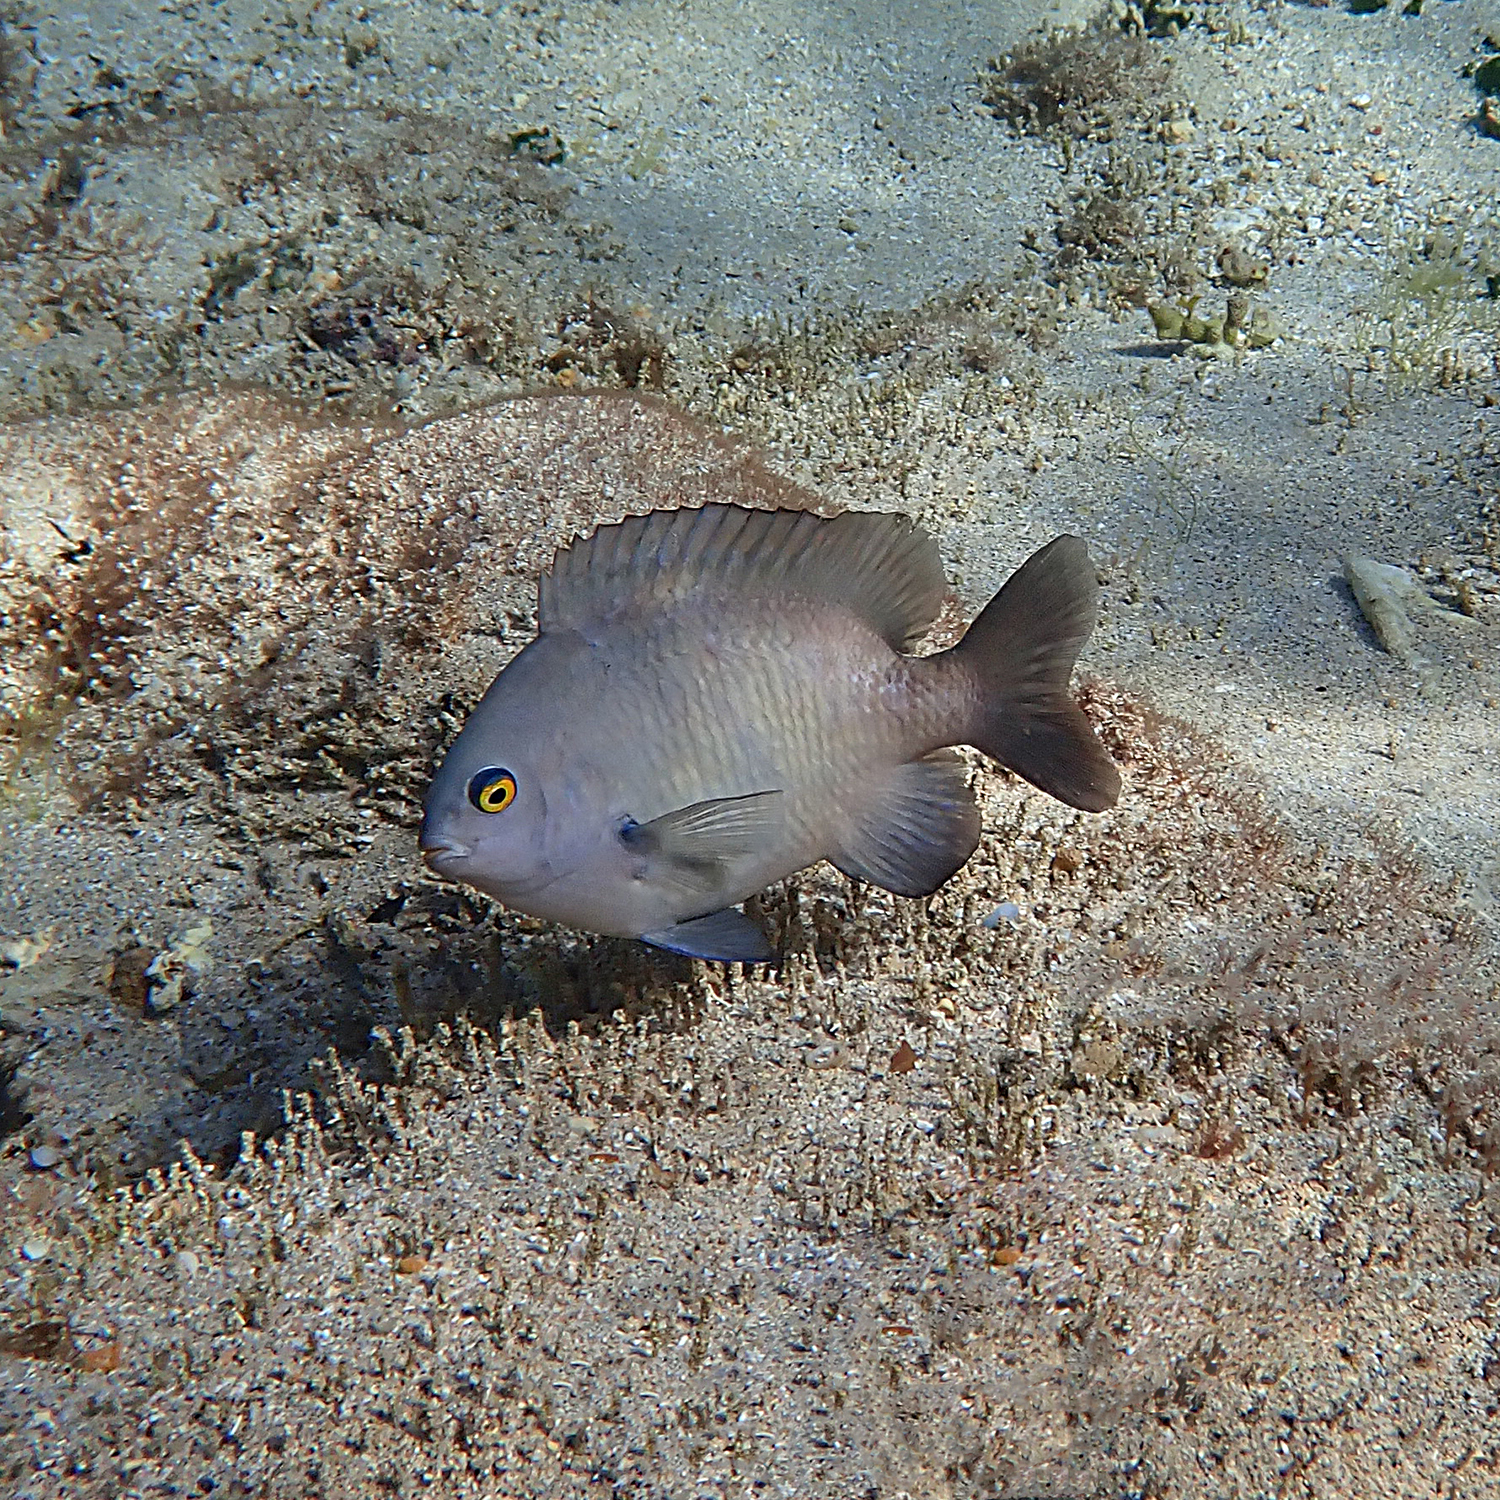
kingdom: Animalia
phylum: Chordata
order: Perciformes
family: Pomacentridae
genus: Stegastes
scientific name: Stegastes fasciolatus
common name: Pacific gregory
